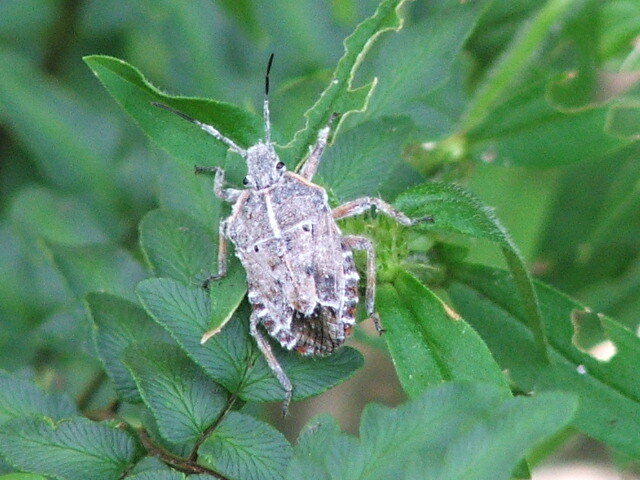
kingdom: Animalia
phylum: Arthropoda
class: Insecta
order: Hemiptera
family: Pentatomidae
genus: Pseudatelus
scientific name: Pseudatelus
